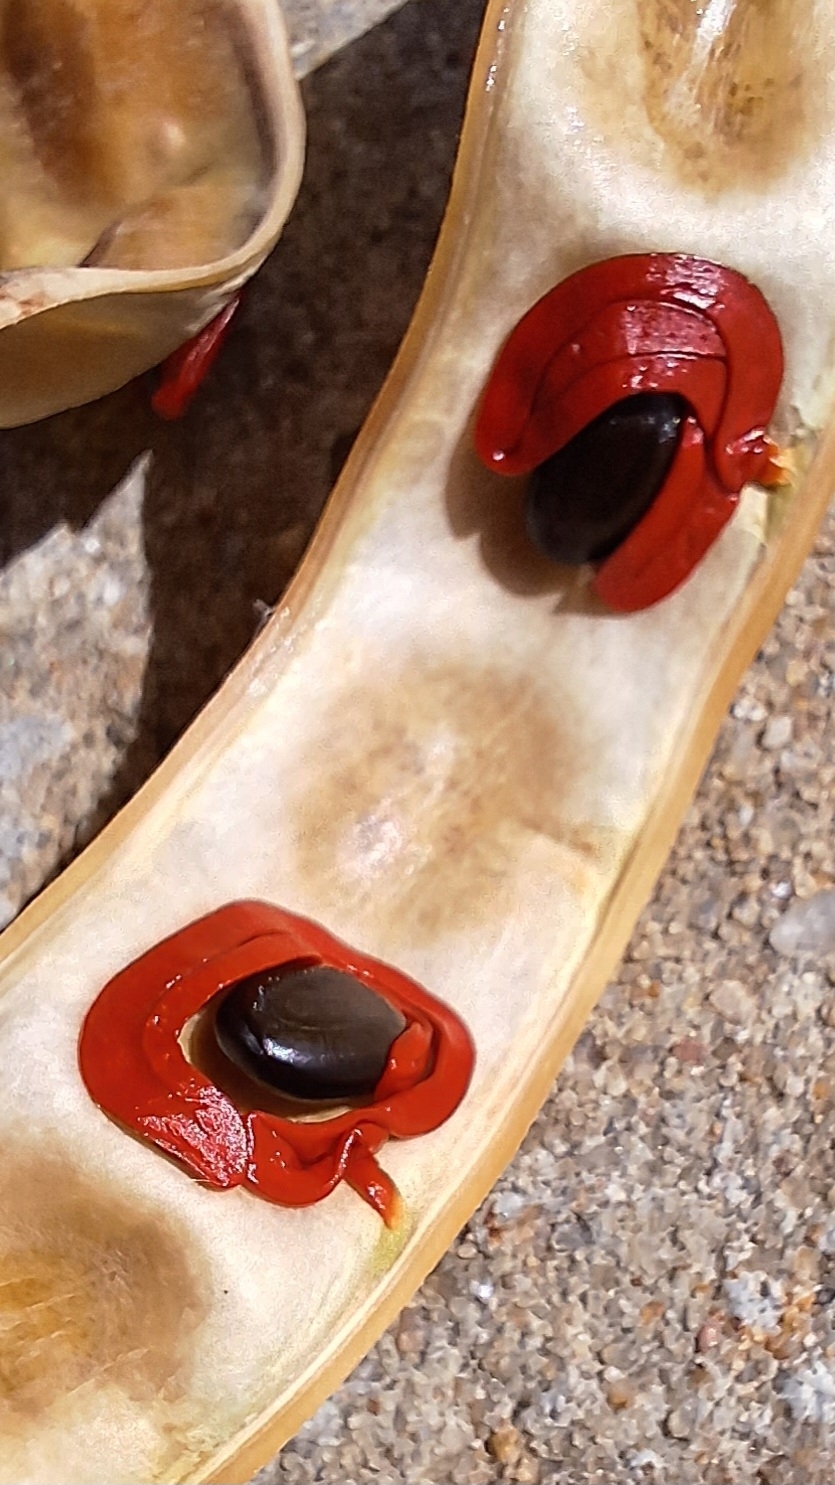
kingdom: Plantae
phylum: Tracheophyta
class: Magnoliopsida
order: Fabales
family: Fabaceae
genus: Acacia
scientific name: Acacia cyclops
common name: Coastal wattle
